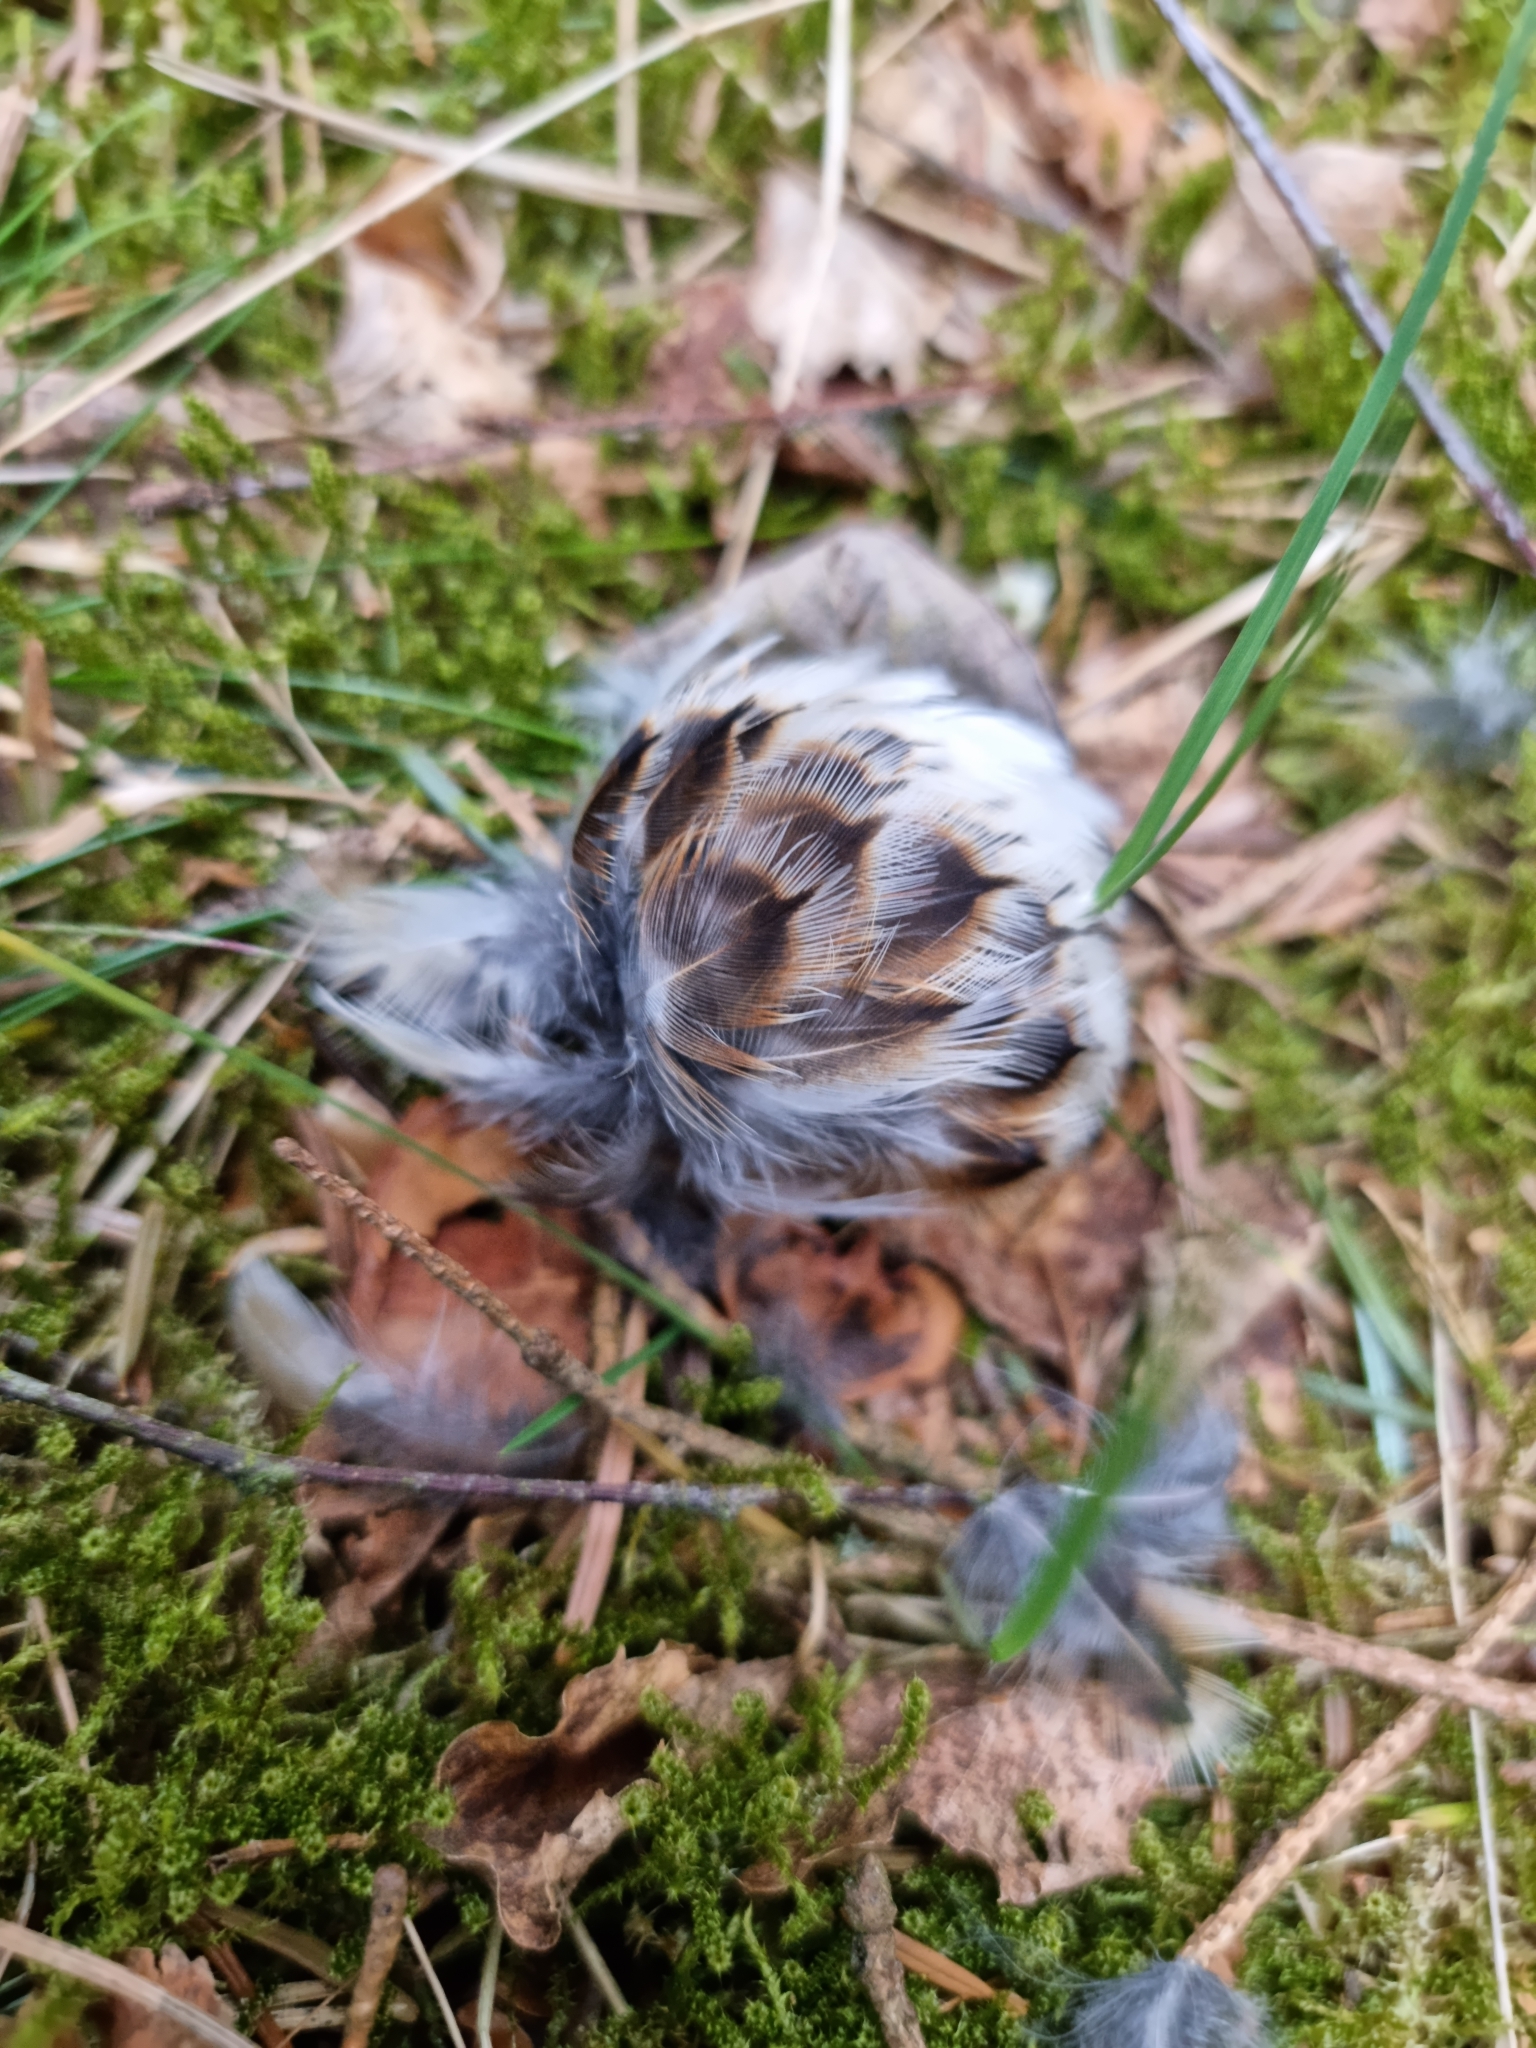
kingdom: Animalia
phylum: Chordata
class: Aves
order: Passeriformes
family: Turdidae
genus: Turdus
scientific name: Turdus pilaris
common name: Fieldfare
